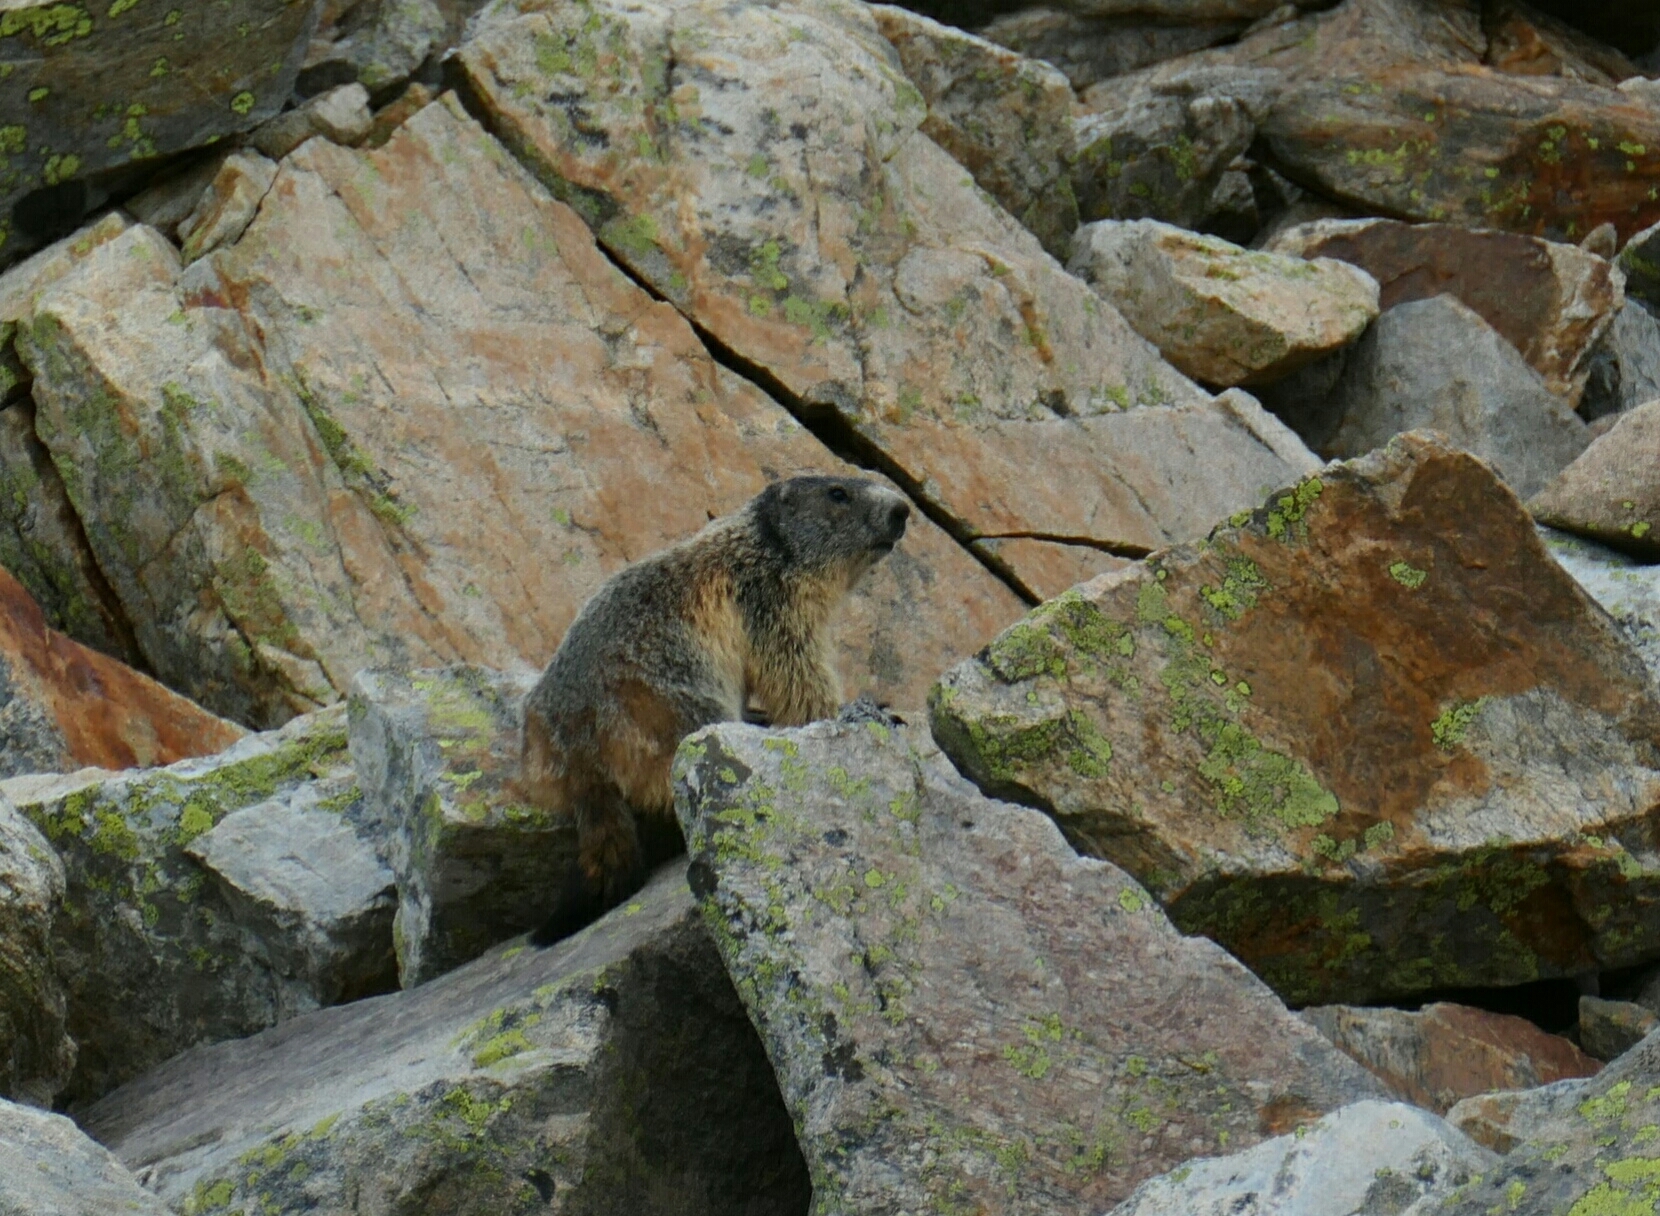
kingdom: Animalia
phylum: Chordata
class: Mammalia
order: Rodentia
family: Sciuridae
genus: Marmota
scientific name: Marmota marmota
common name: Alpine marmot
